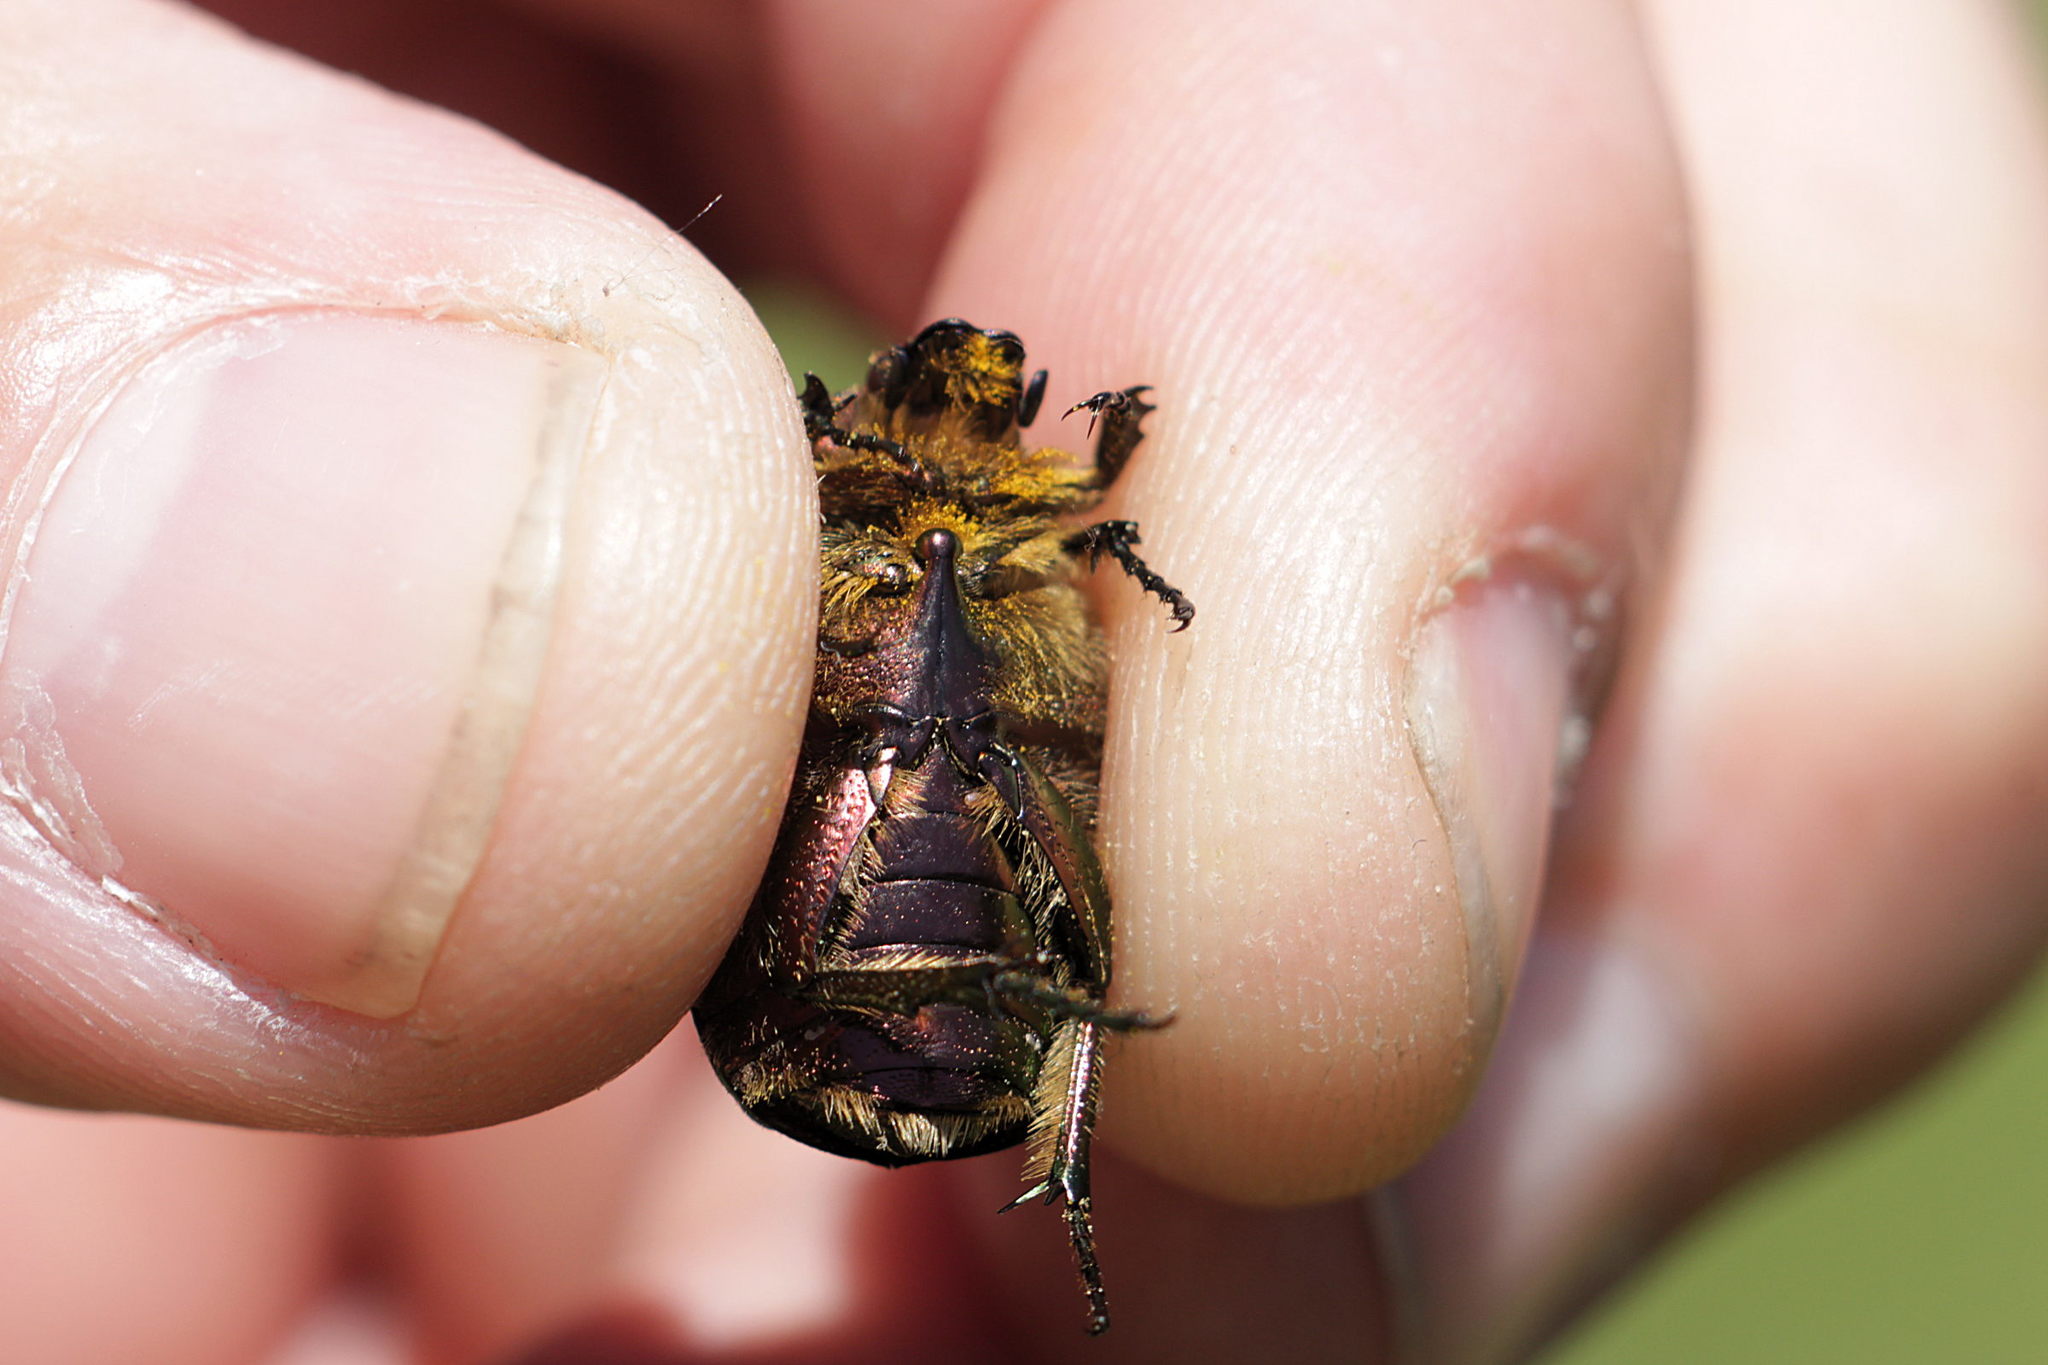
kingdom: Animalia
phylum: Arthropoda
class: Insecta
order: Coleoptera
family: Scarabaeidae
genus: Cetonia
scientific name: Cetonia aurata
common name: Rose chafer
